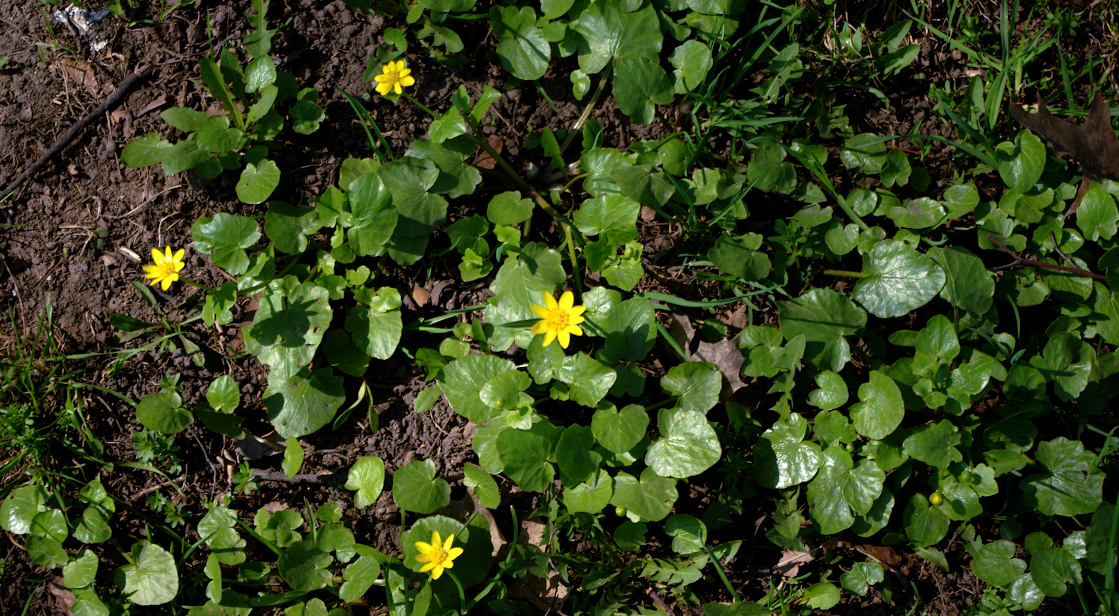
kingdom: Plantae
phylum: Tracheophyta
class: Magnoliopsida
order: Ranunculales
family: Ranunculaceae
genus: Ficaria
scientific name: Ficaria verna
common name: Lesser celandine
